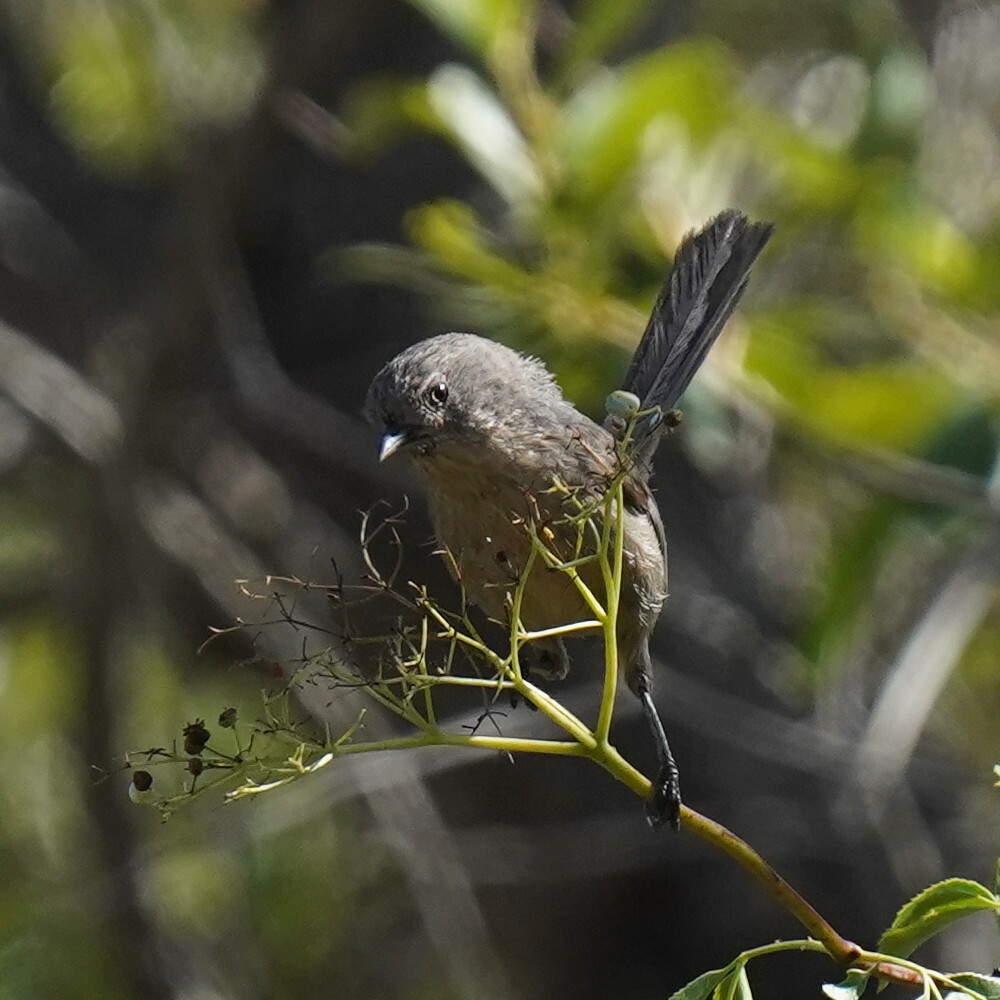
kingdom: Animalia
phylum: Chordata
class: Aves
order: Passeriformes
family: Sylviidae
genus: Chamaea
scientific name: Chamaea fasciata
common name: Wrentit
